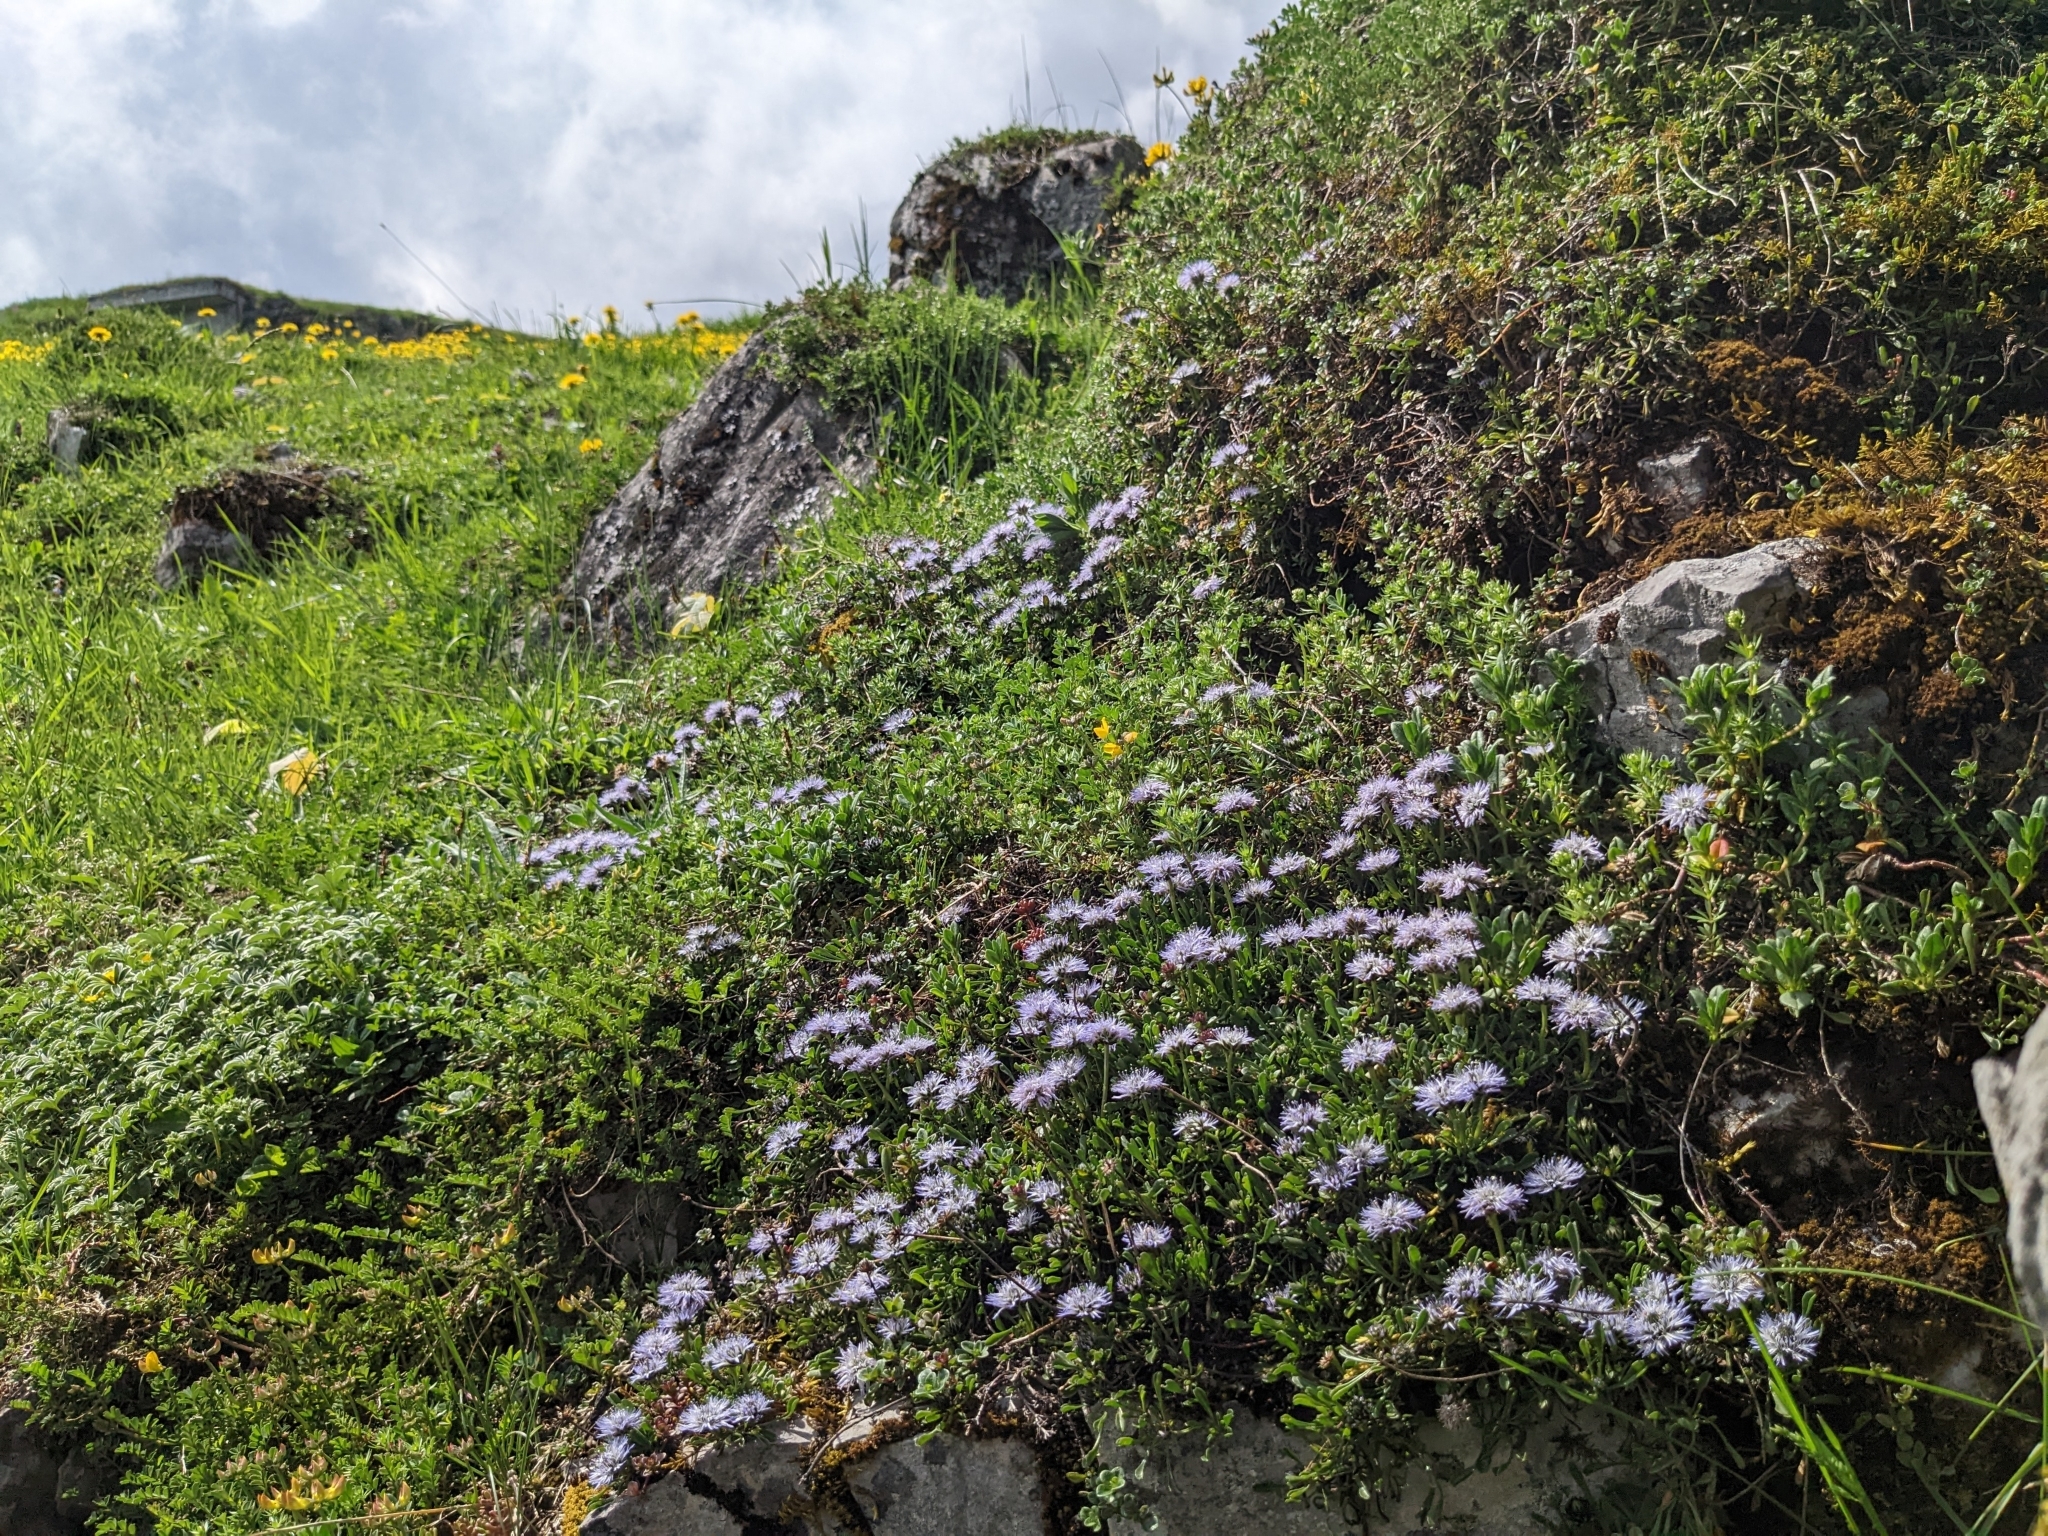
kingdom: Plantae
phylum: Tracheophyta
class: Magnoliopsida
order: Lamiales
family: Plantaginaceae
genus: Globularia
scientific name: Globularia cordifolia
